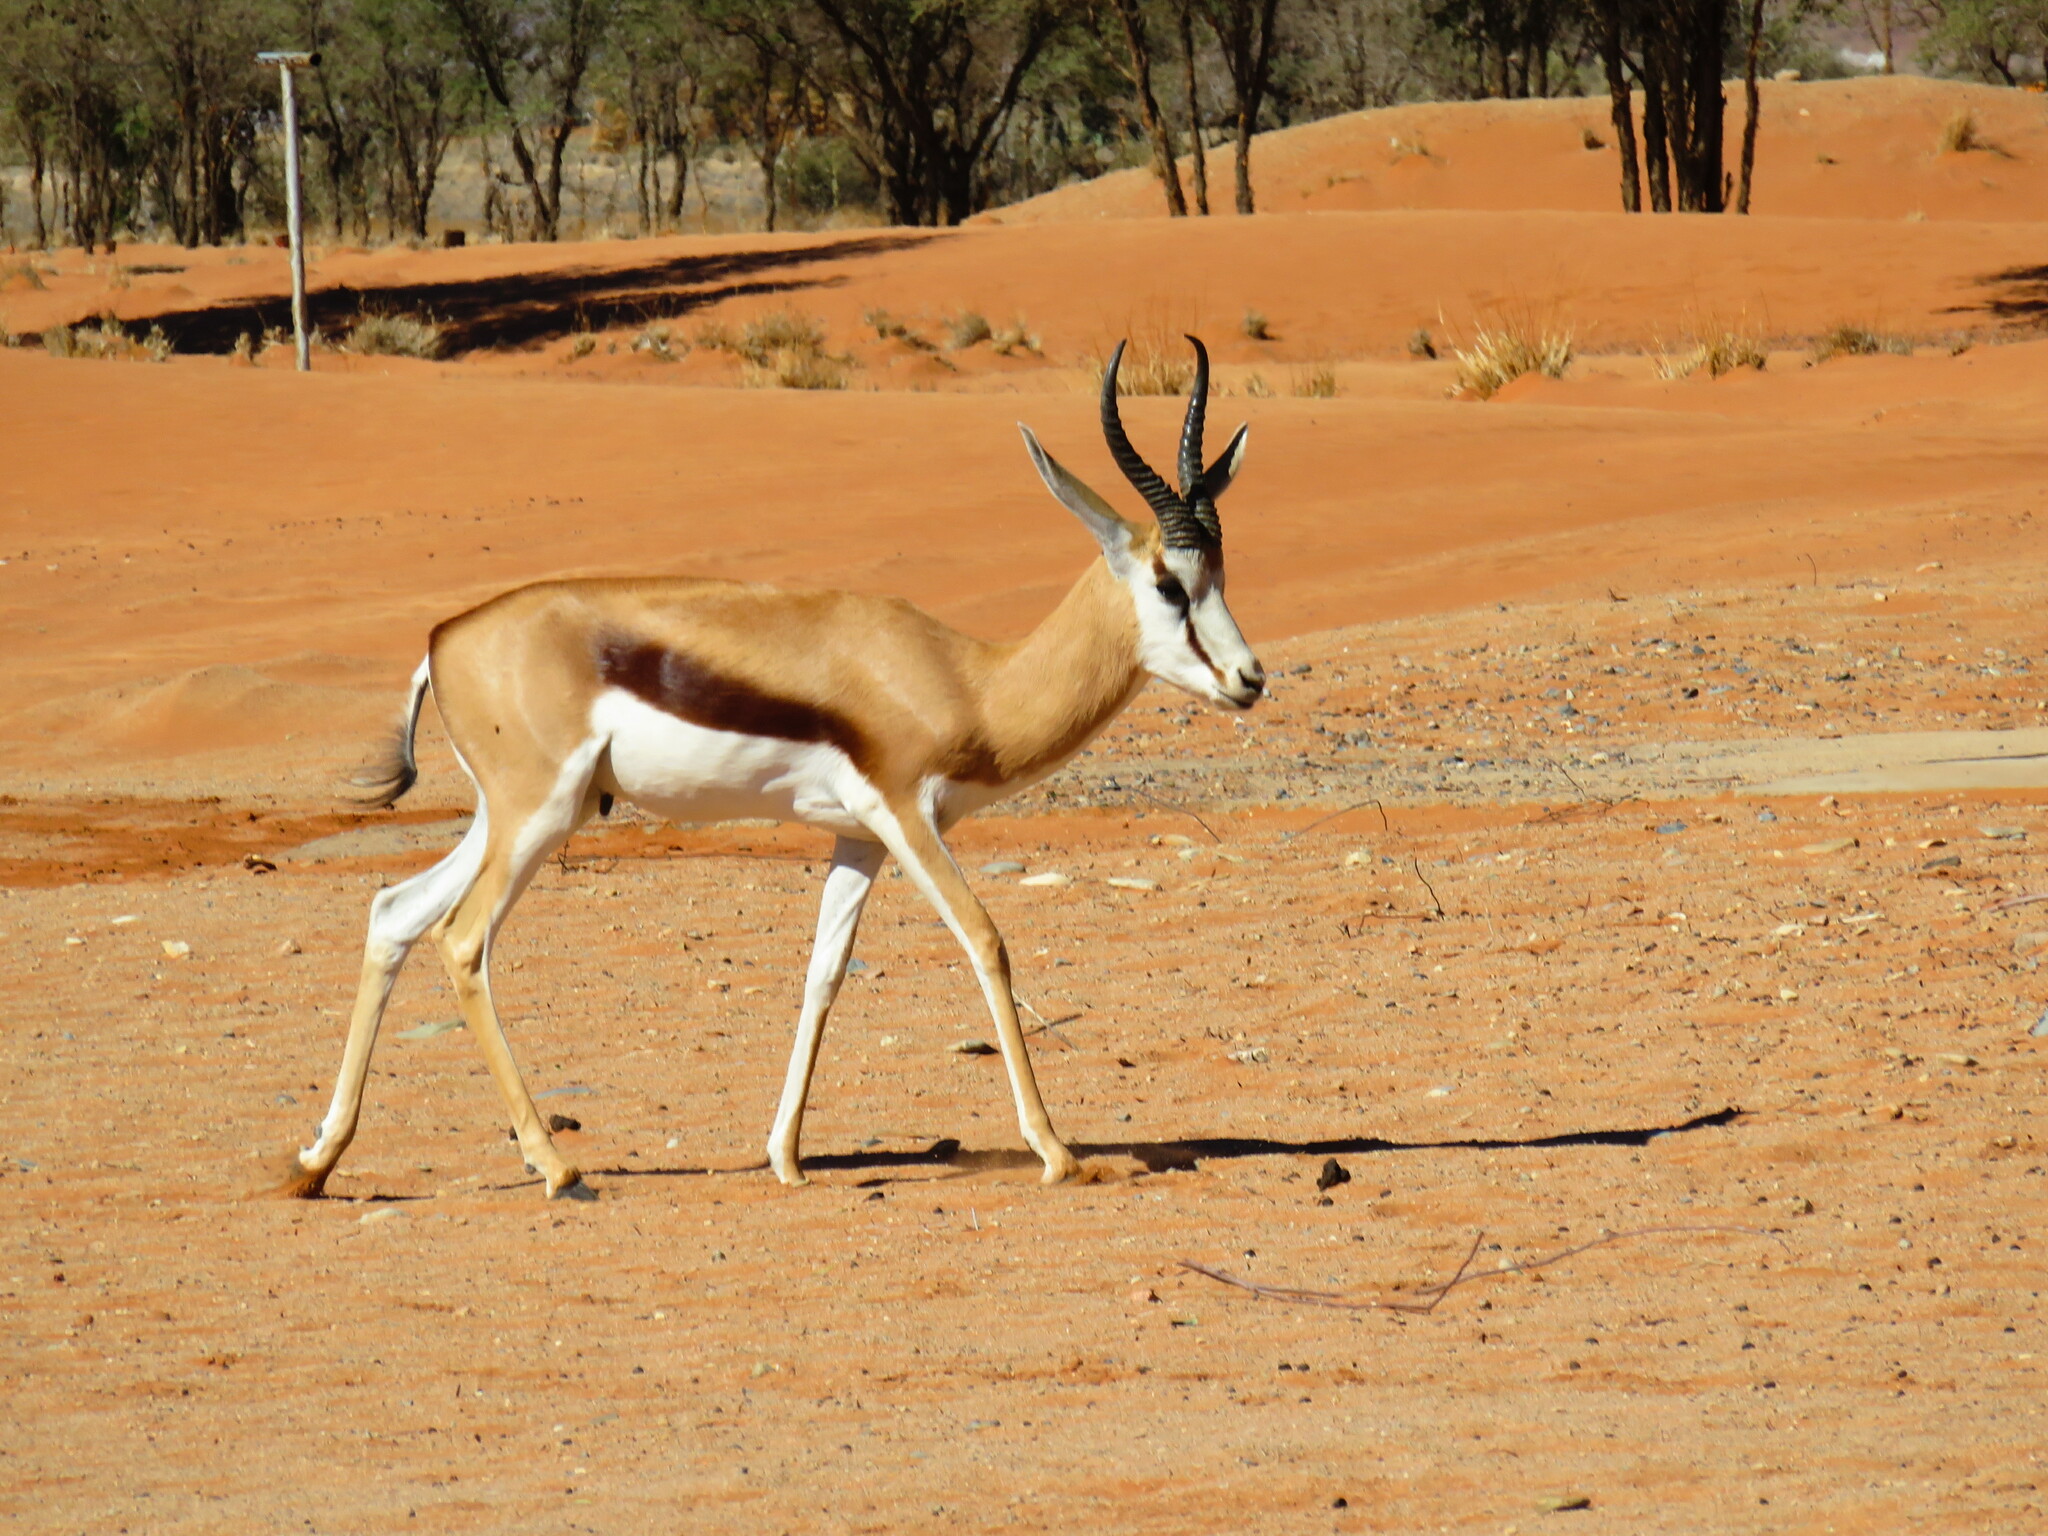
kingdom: Animalia
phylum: Chordata
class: Mammalia
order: Artiodactyla
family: Bovidae
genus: Antidorcas
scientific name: Antidorcas marsupialis
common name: Springbok
